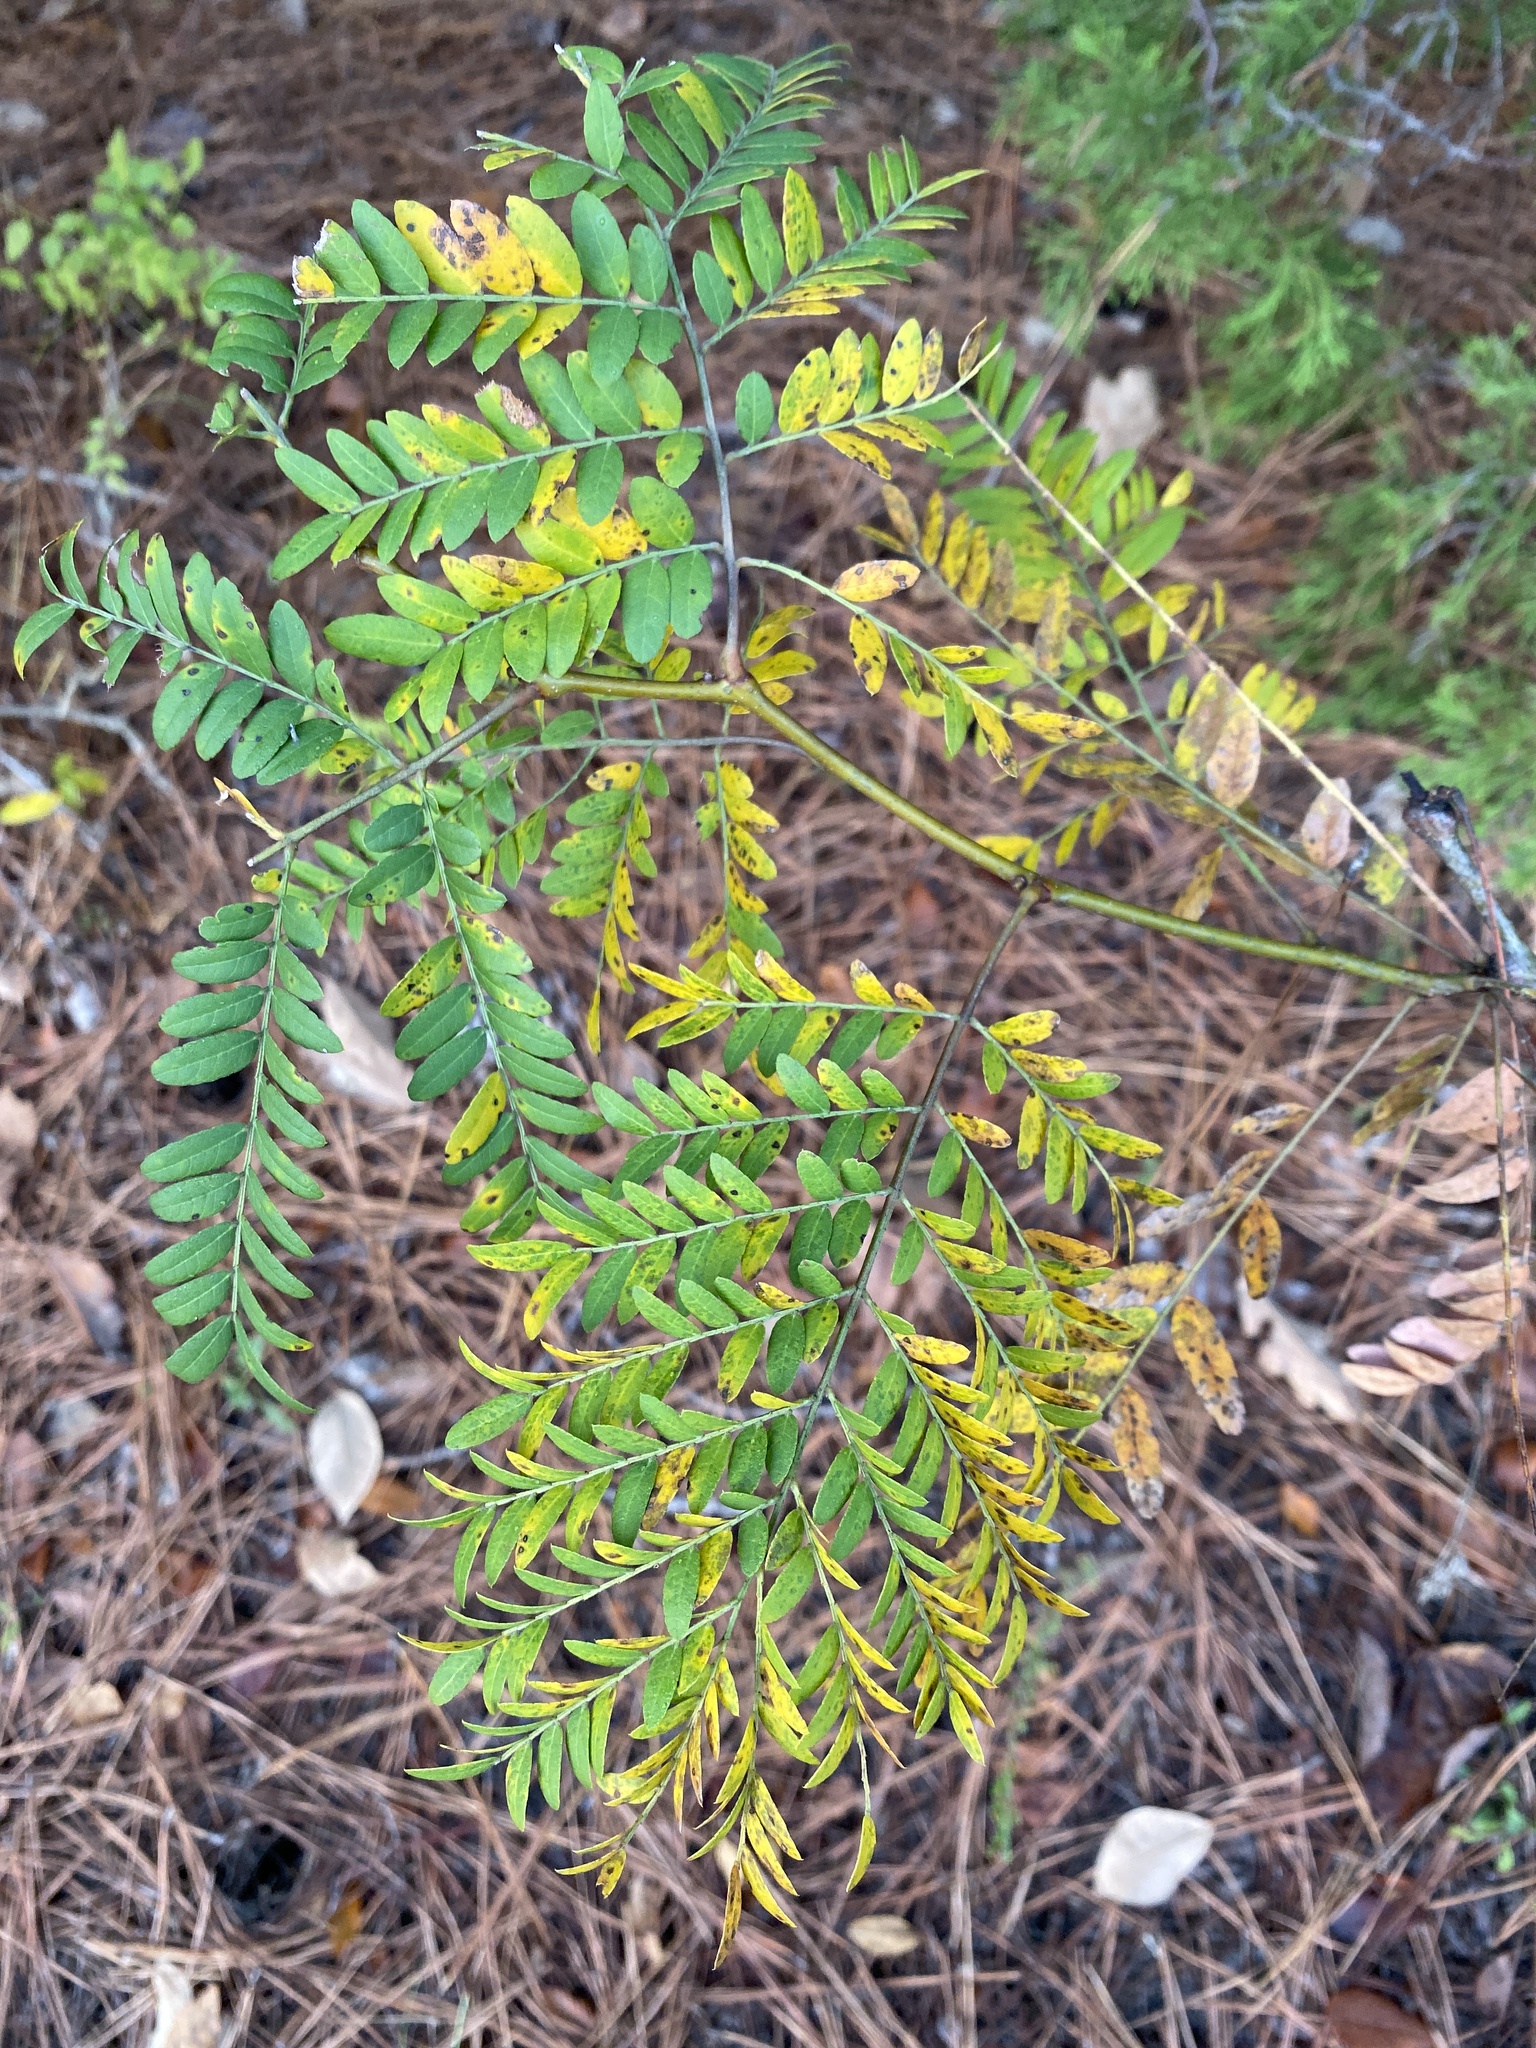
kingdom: Plantae
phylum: Tracheophyta
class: Magnoliopsida
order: Fabales
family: Fabaceae
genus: Gleditsia
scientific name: Gleditsia triacanthos
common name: Common honeylocust
